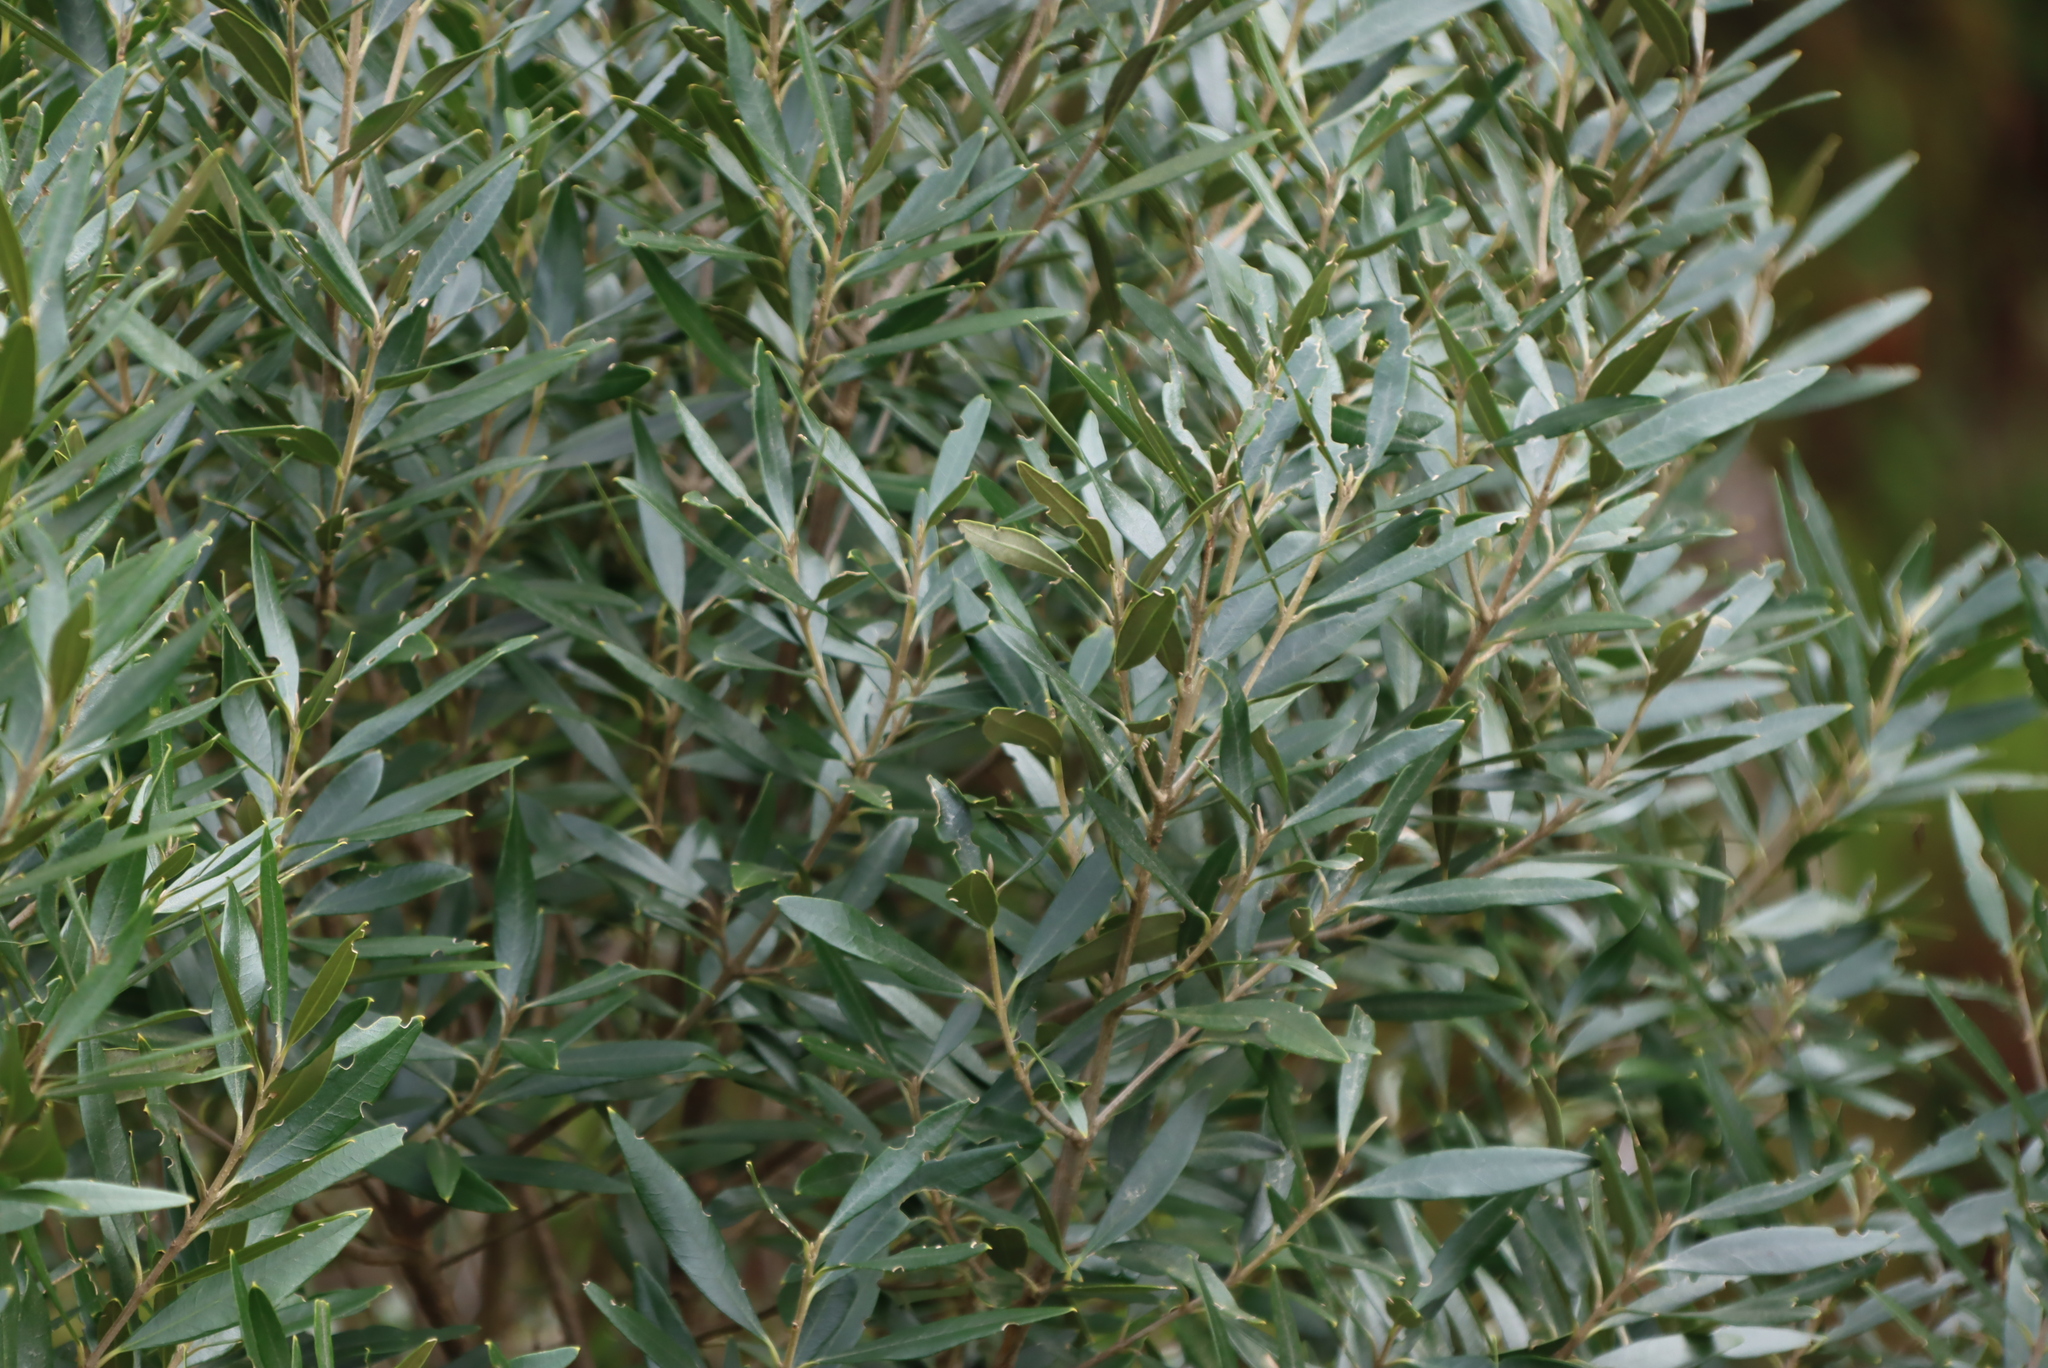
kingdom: Plantae
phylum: Tracheophyta
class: Magnoliopsida
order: Lamiales
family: Oleaceae
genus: Olea
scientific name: Olea europaea
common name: Olive
